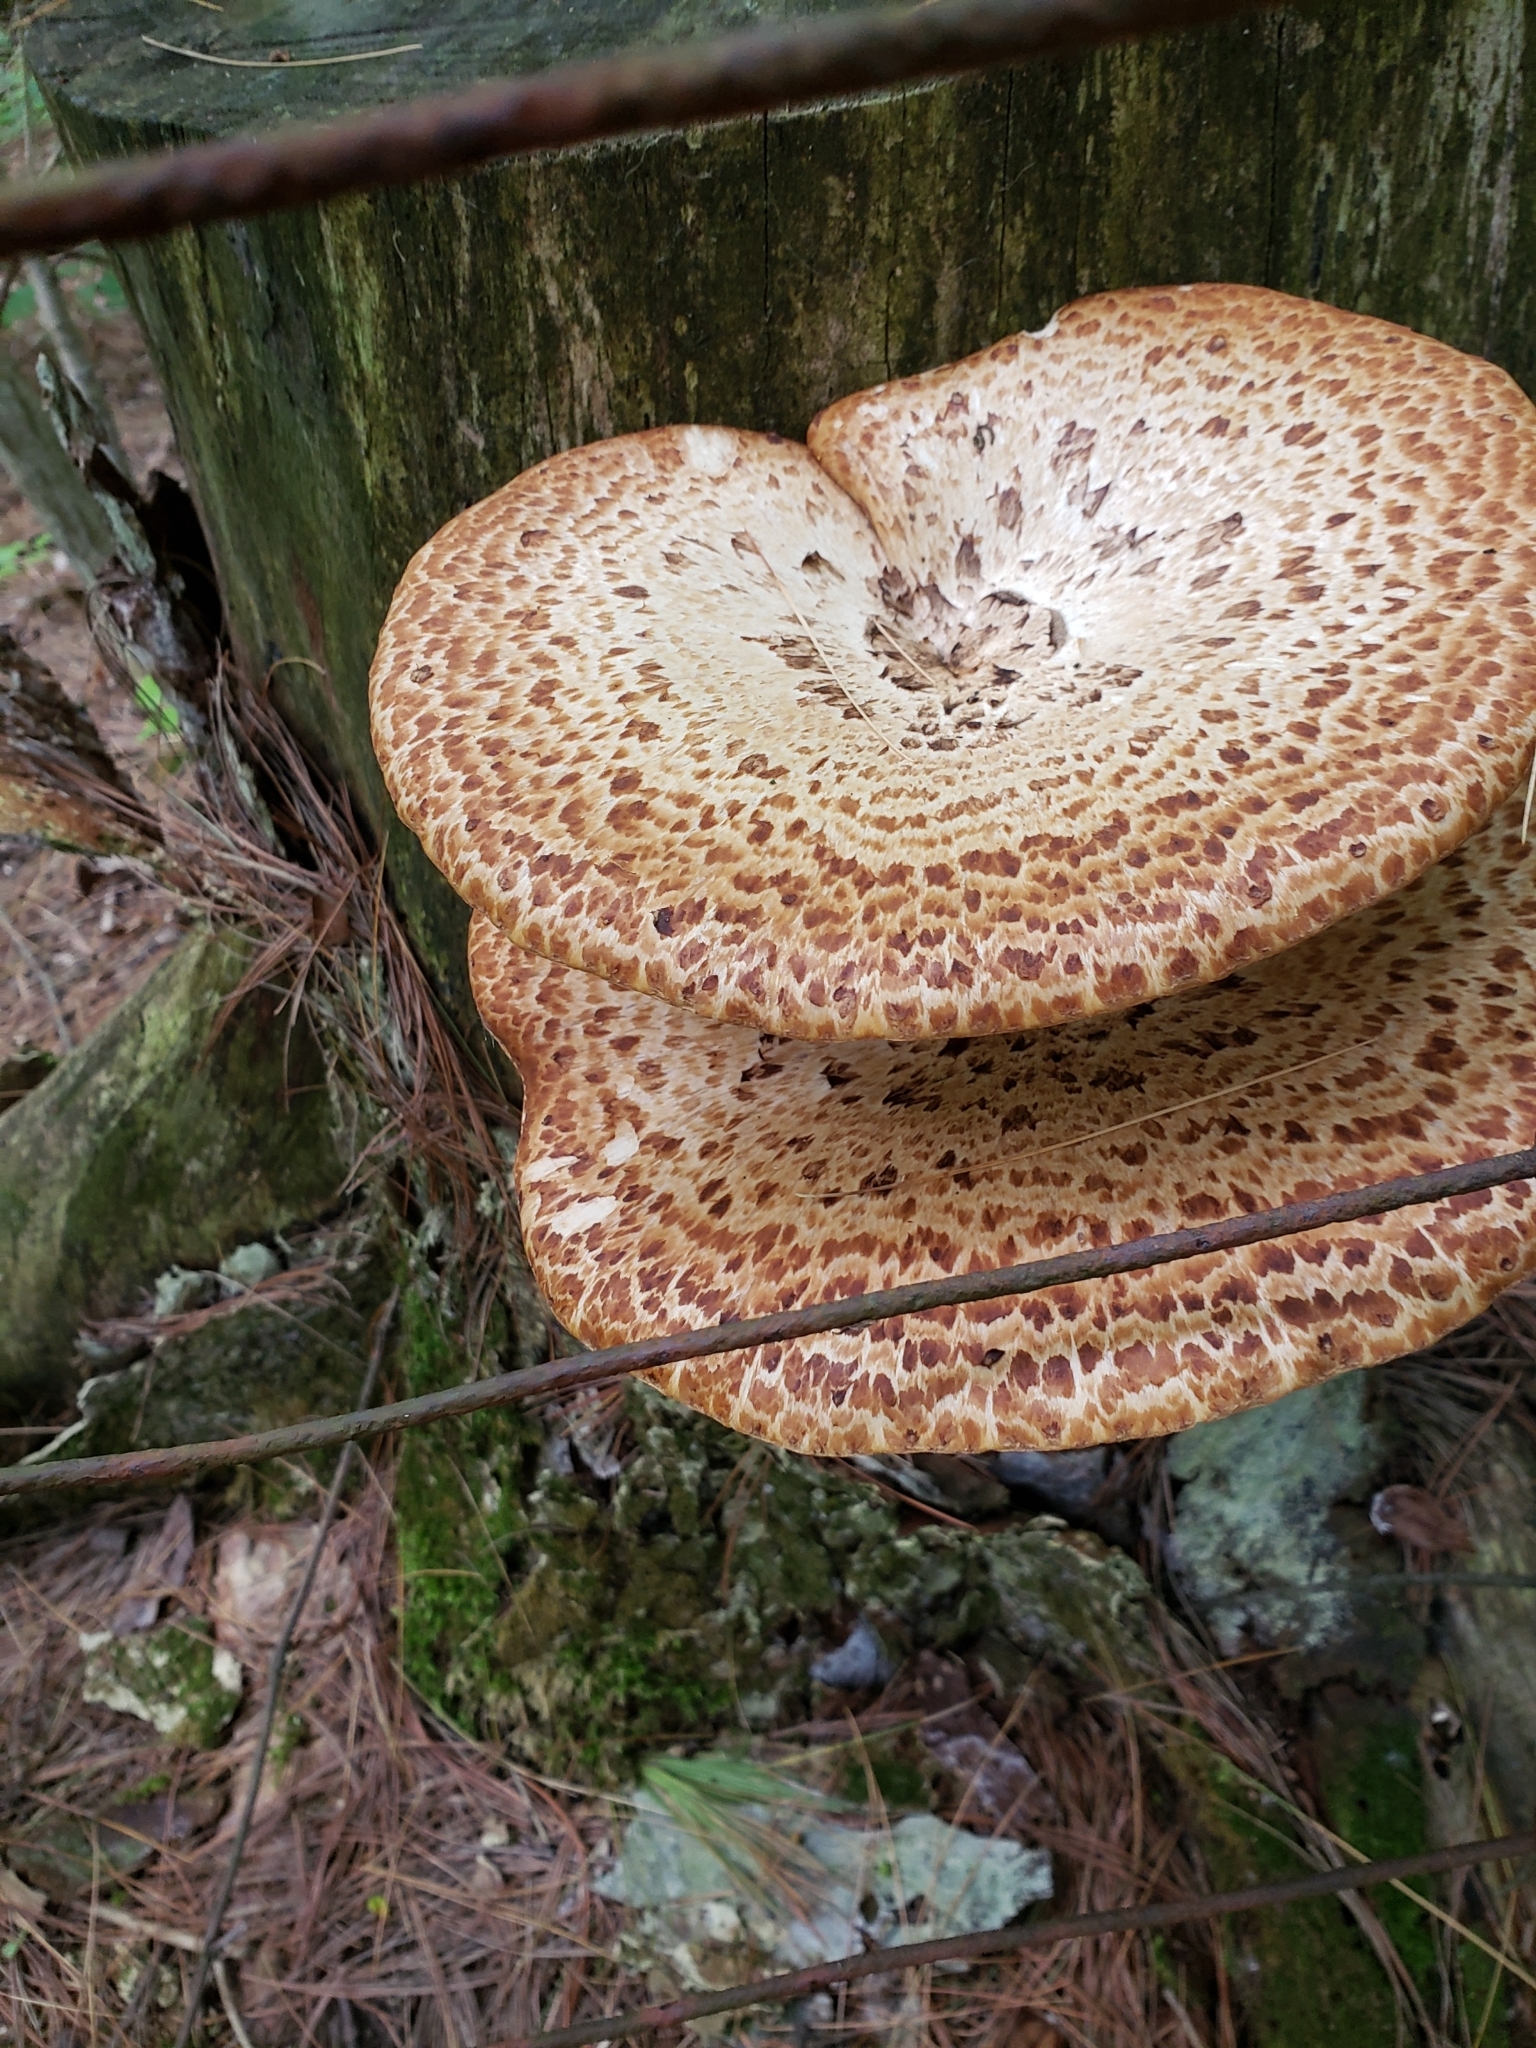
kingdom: Fungi
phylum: Basidiomycota
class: Agaricomycetes
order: Polyporales
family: Polyporaceae
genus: Cerioporus
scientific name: Cerioporus squamosus
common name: Dryad's saddle
